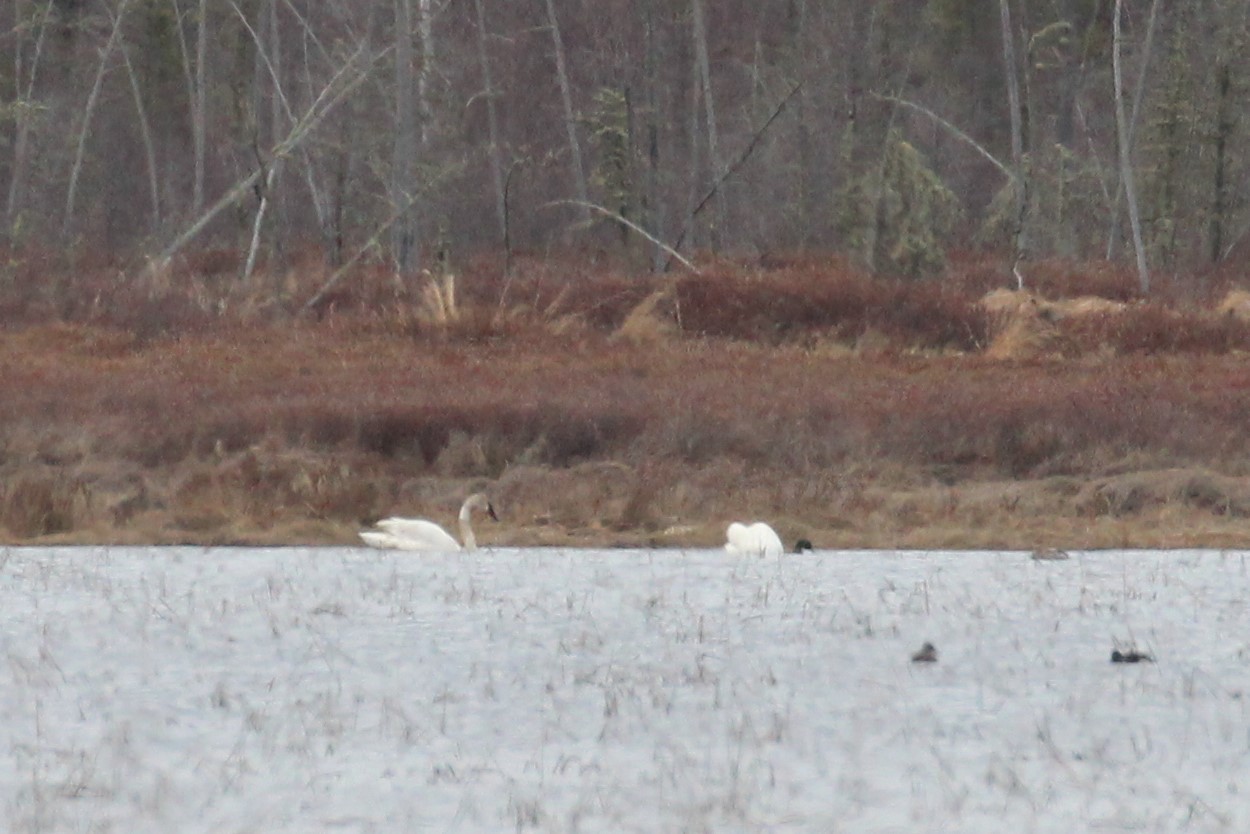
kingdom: Animalia
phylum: Chordata
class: Aves
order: Anseriformes
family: Anatidae
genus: Cygnus
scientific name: Cygnus buccinator
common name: Trumpeter swan
